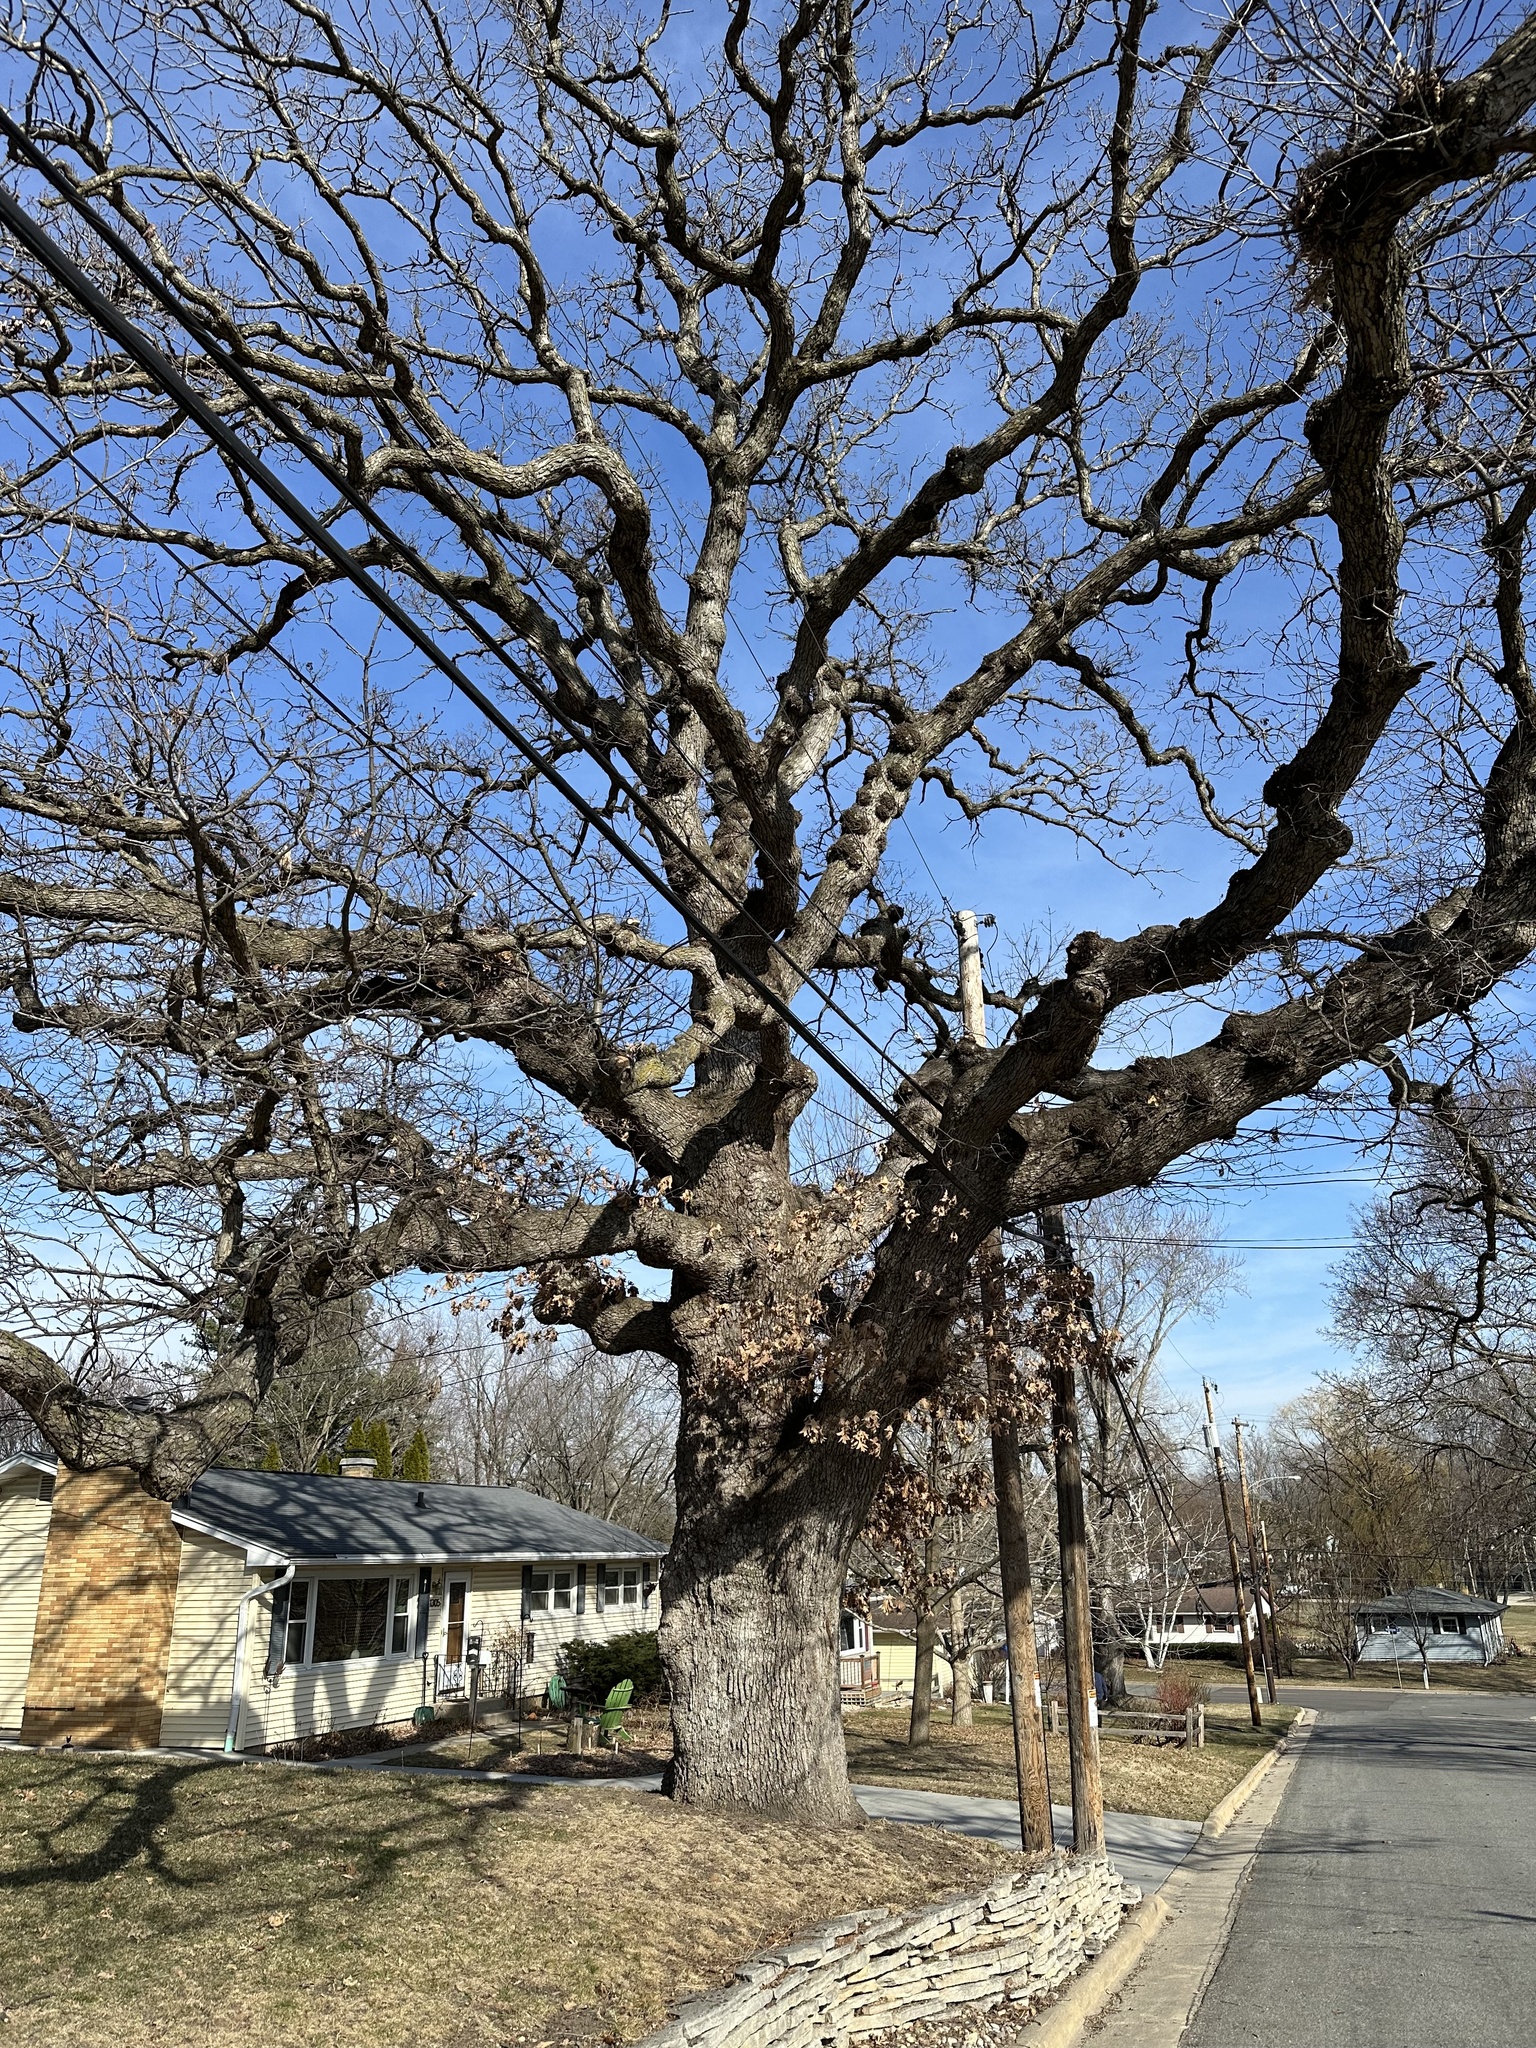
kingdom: Plantae
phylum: Tracheophyta
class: Magnoliopsida
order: Fagales
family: Fagaceae
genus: Quercus
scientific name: Quercus macrocarpa
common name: Bur oak
